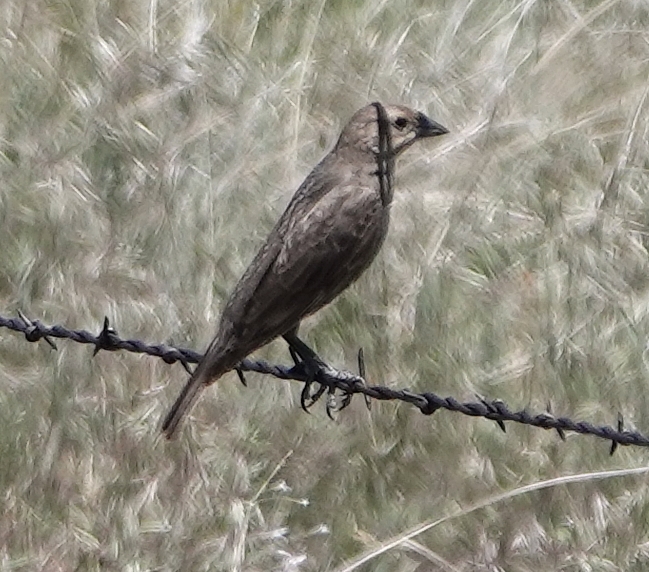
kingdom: Animalia
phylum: Chordata
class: Aves
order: Passeriformes
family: Icteridae
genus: Molothrus
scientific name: Molothrus ater
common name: Brown-headed cowbird
